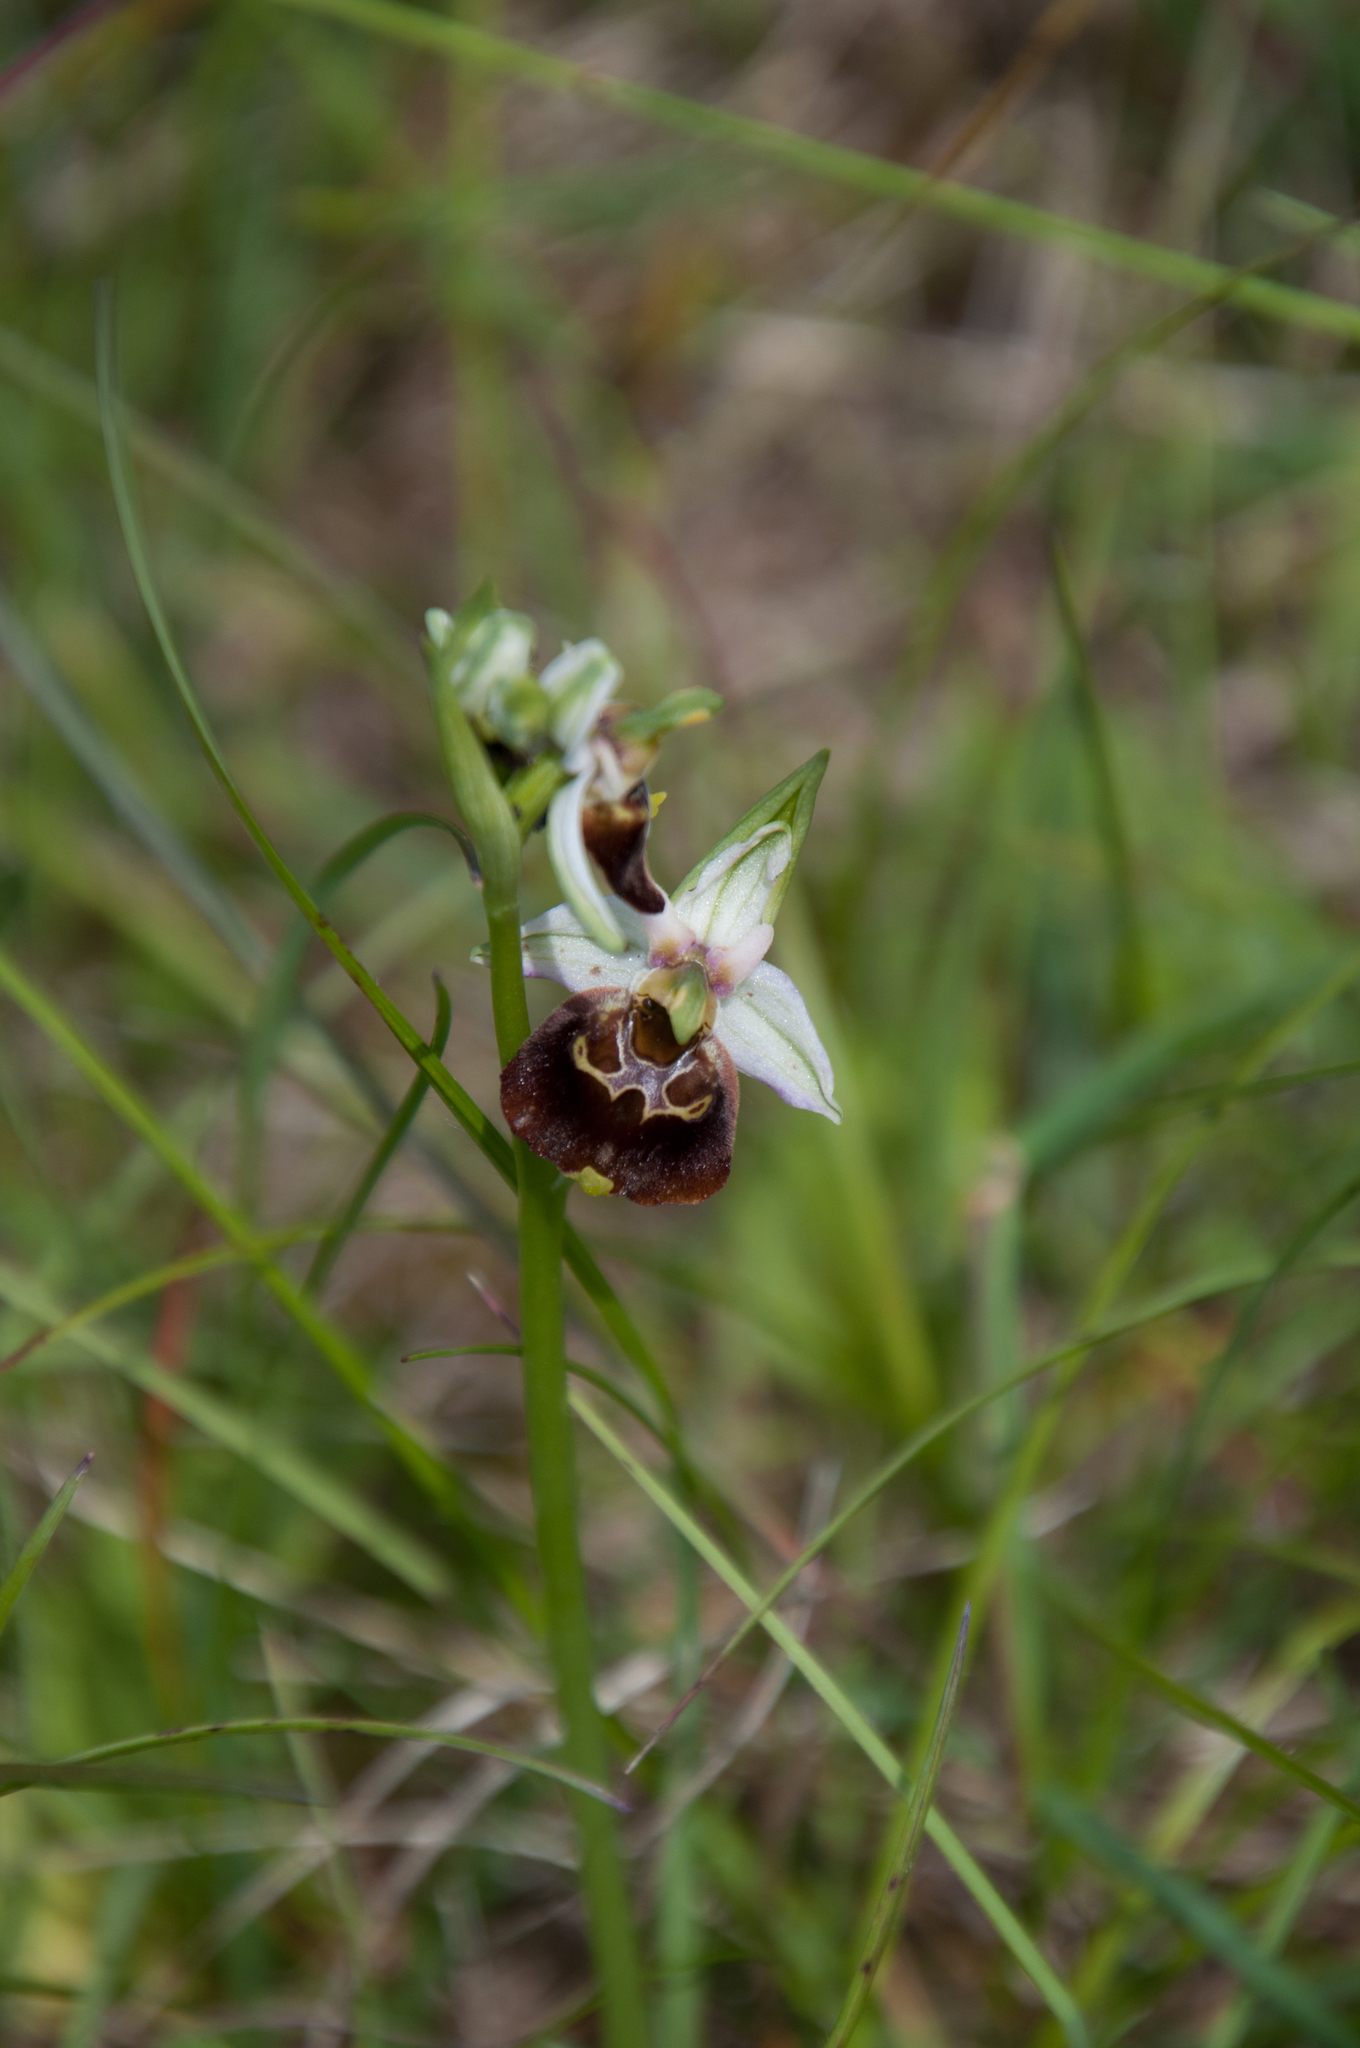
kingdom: Plantae
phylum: Tracheophyta
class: Liliopsida
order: Asparagales
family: Orchidaceae
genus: Ophrys
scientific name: Ophrys holosericea
